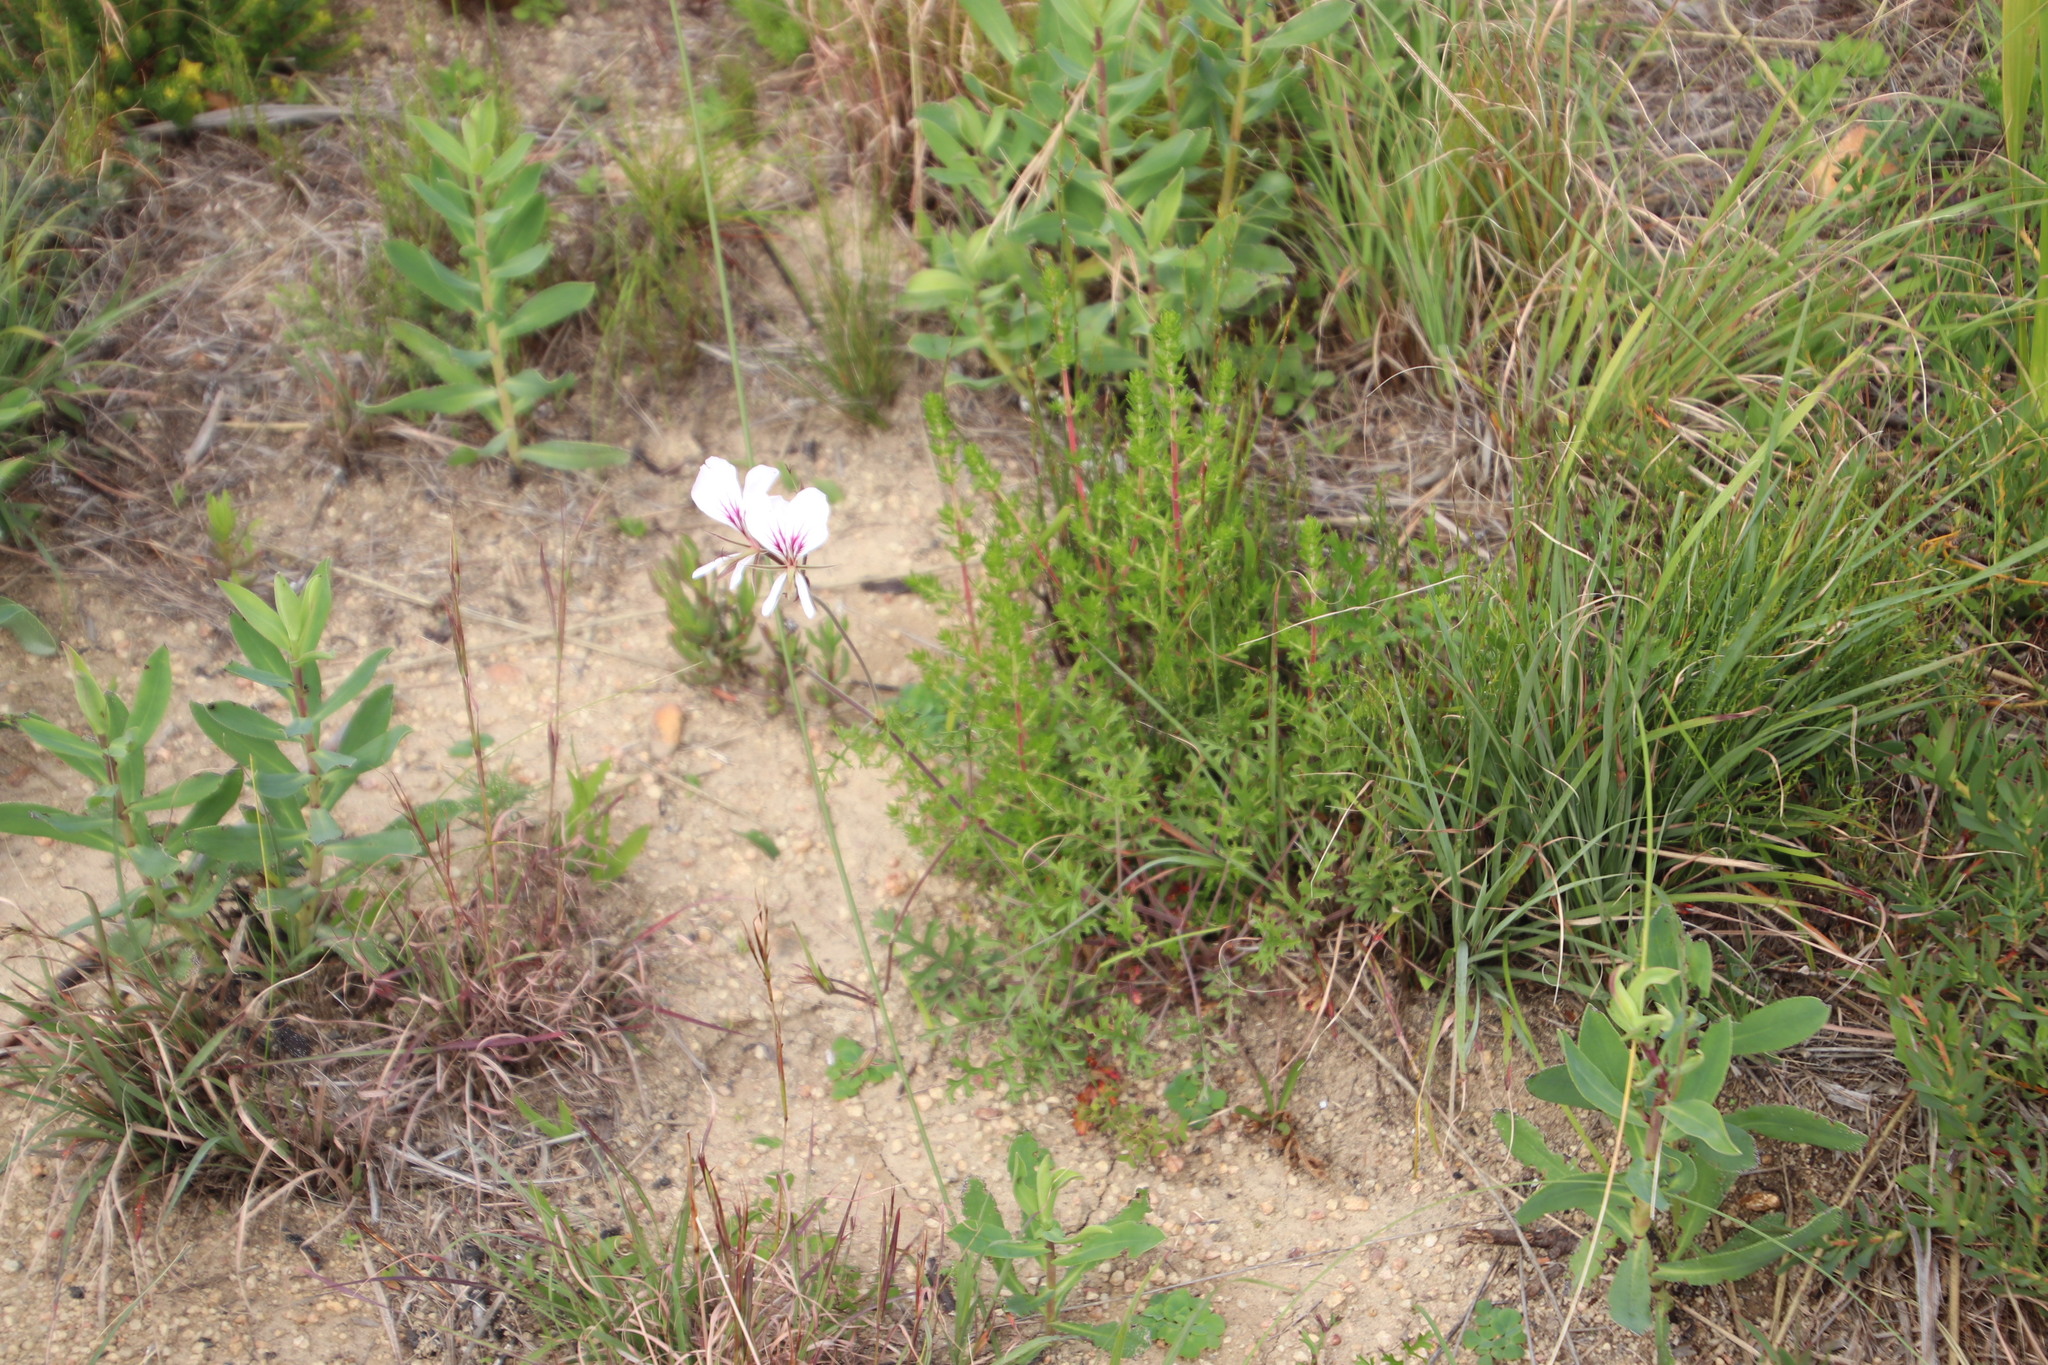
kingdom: Plantae
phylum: Tracheophyta
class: Magnoliopsida
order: Geraniales
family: Geraniaceae
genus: Pelargonium
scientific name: Pelargonium myrrhifolium
